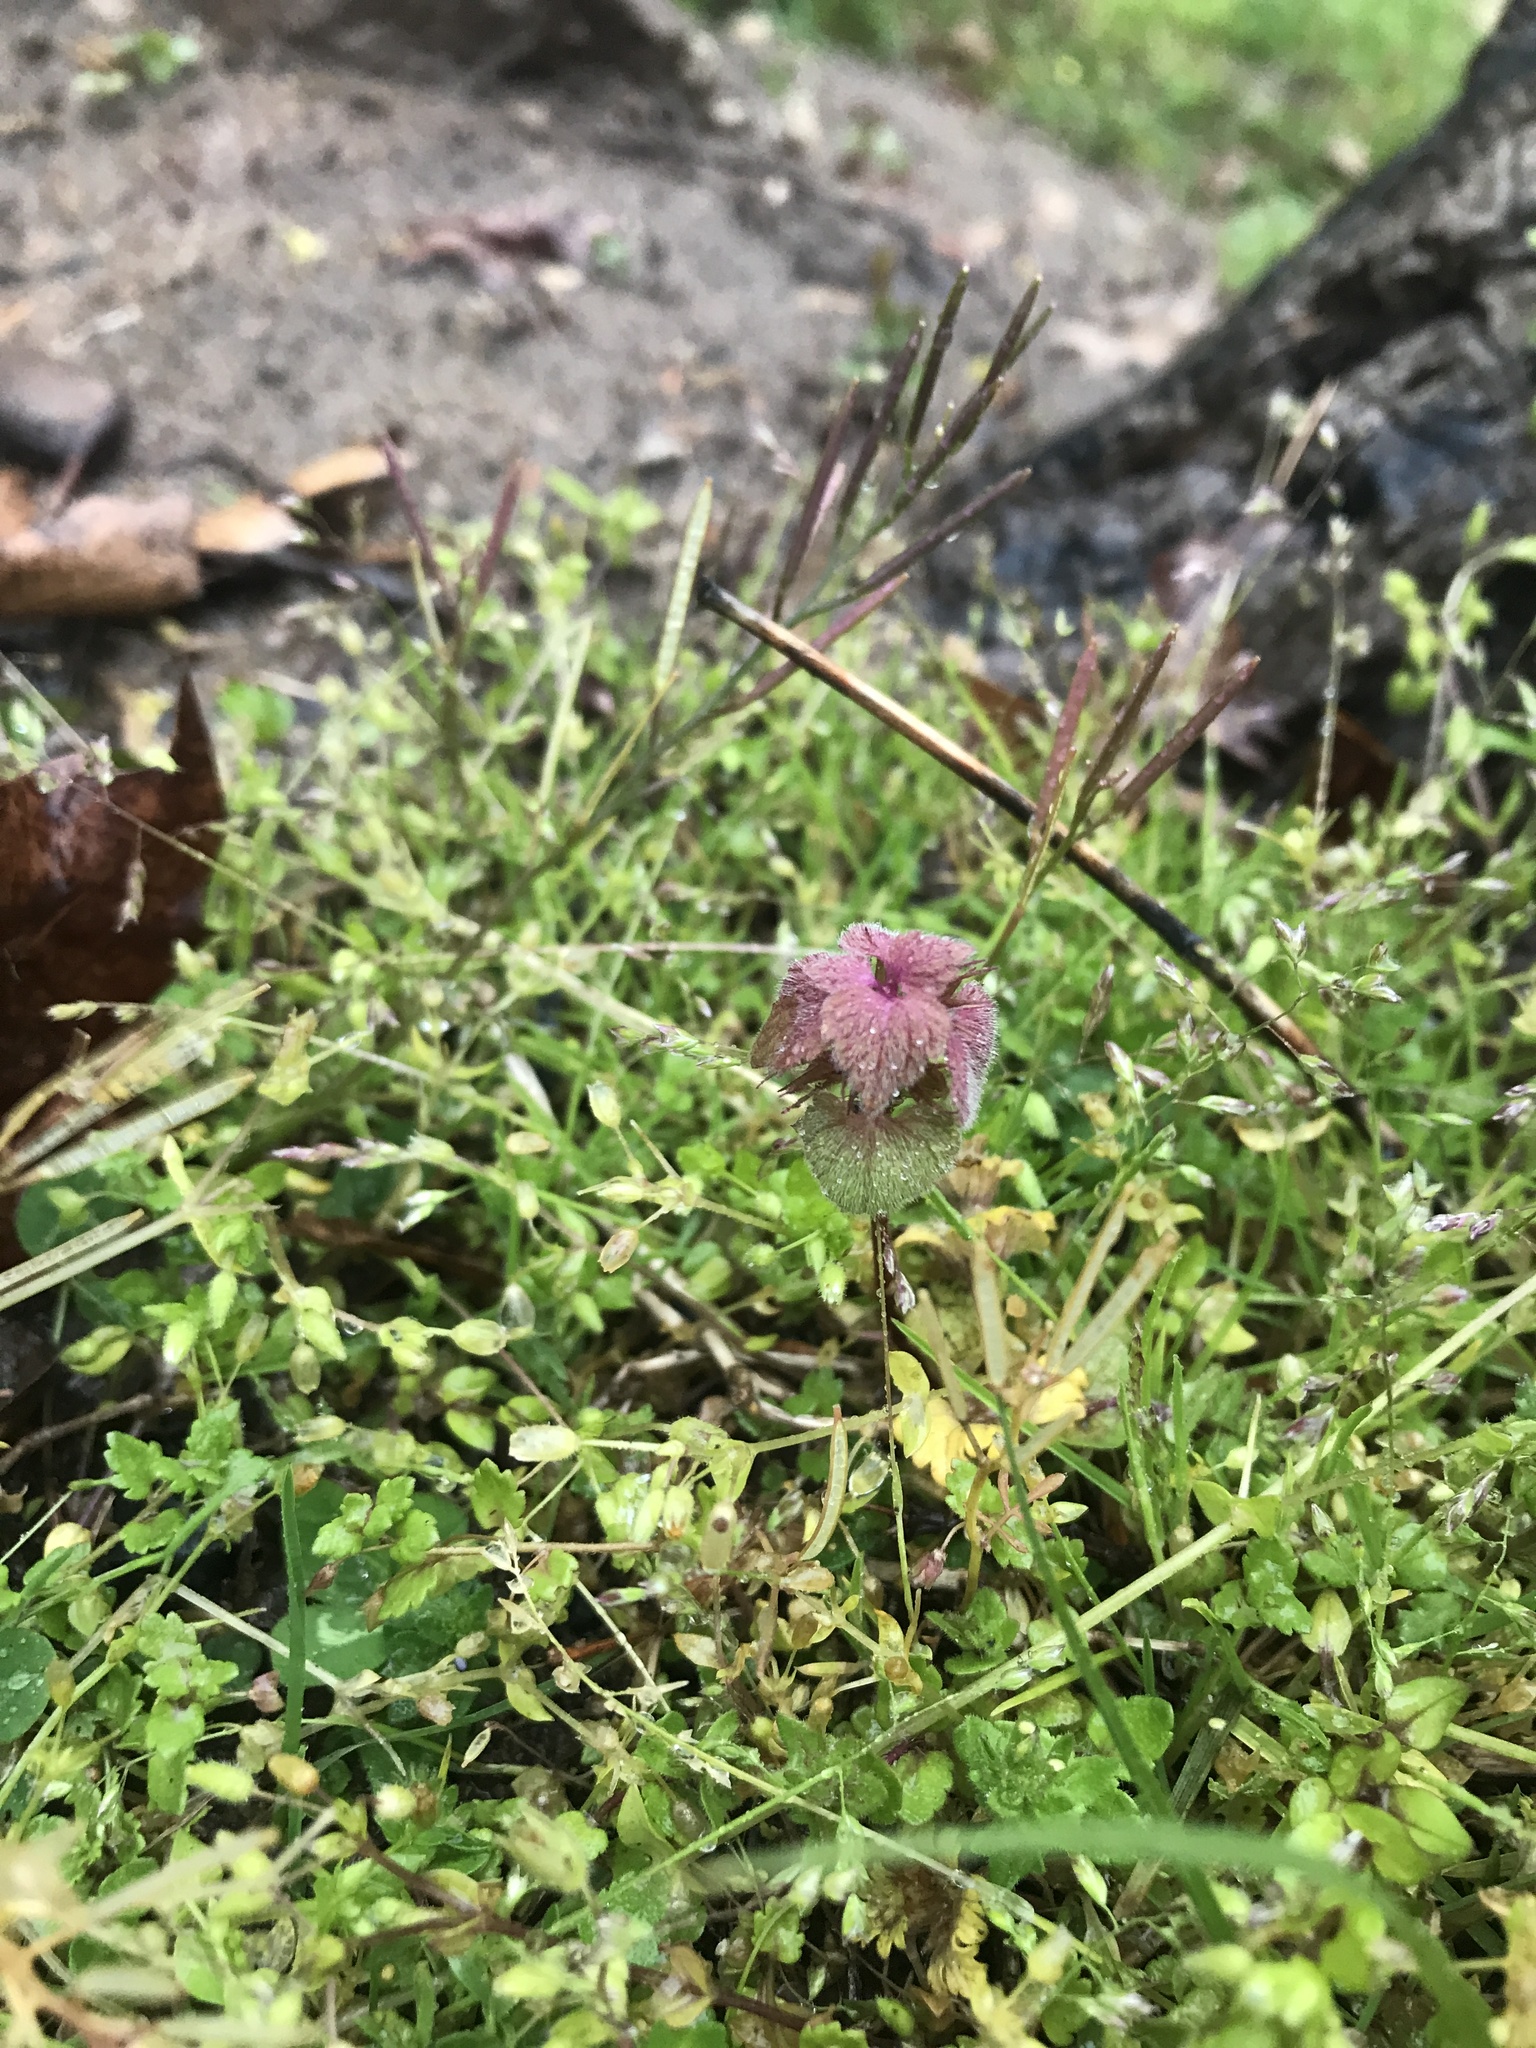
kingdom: Plantae
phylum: Tracheophyta
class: Magnoliopsida
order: Lamiales
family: Lamiaceae
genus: Lamium
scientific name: Lamium purpureum
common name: Red dead-nettle
